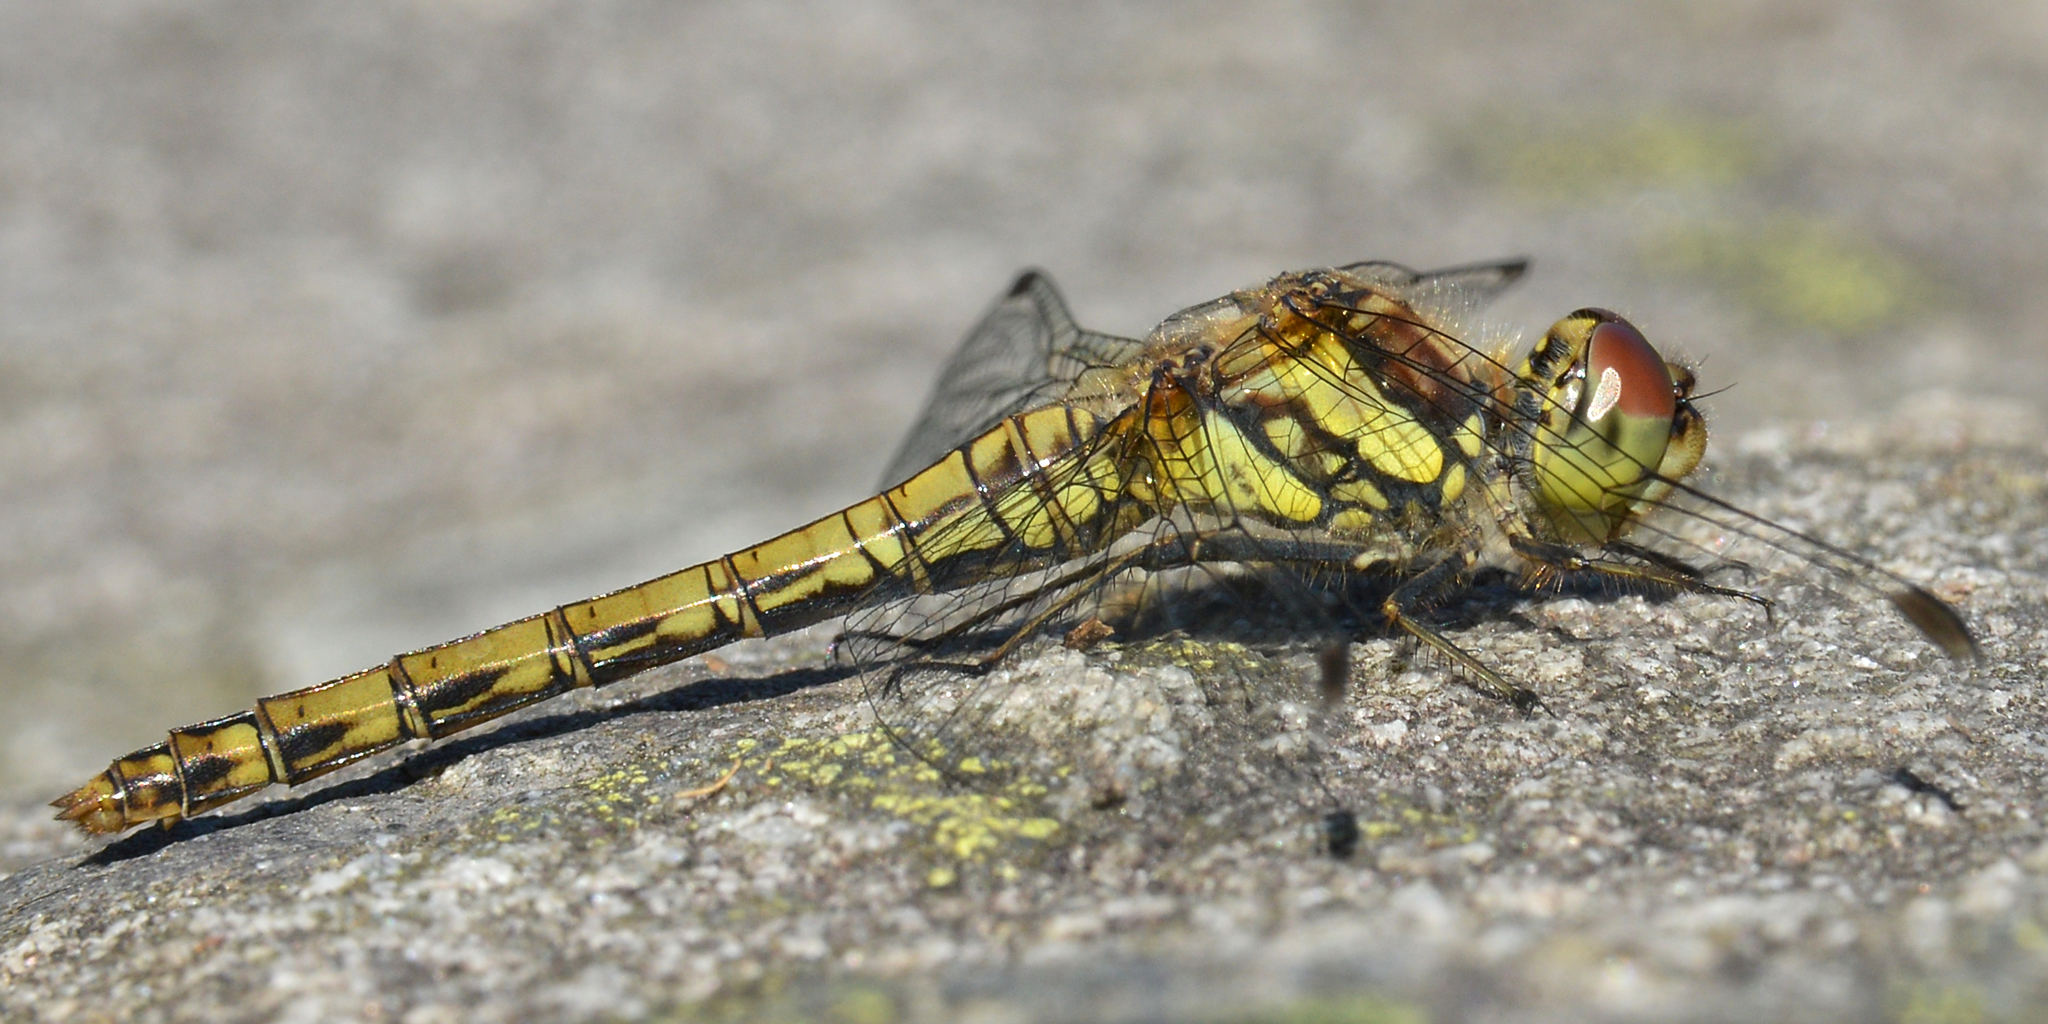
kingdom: Animalia
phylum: Arthropoda
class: Insecta
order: Odonata
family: Libellulidae
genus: Sympetrum
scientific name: Sympetrum vulgatum
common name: Vagrant darter
